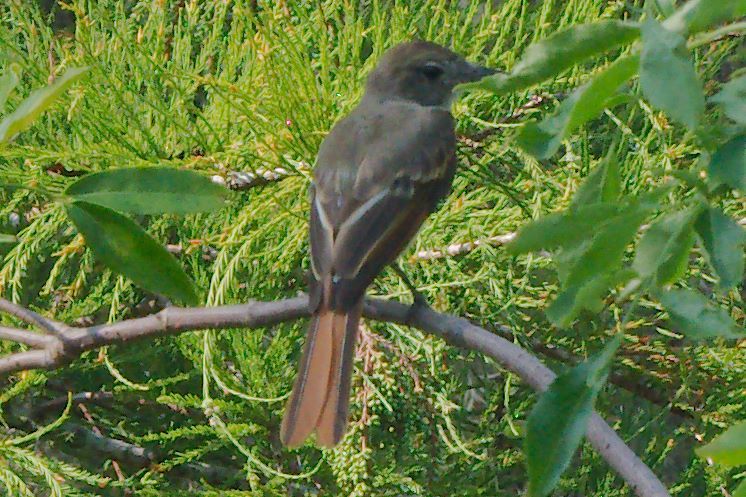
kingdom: Animalia
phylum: Chordata
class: Aves
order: Passeriformes
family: Tyrannidae
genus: Myiarchus
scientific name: Myiarchus crinitus
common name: Great crested flycatcher
